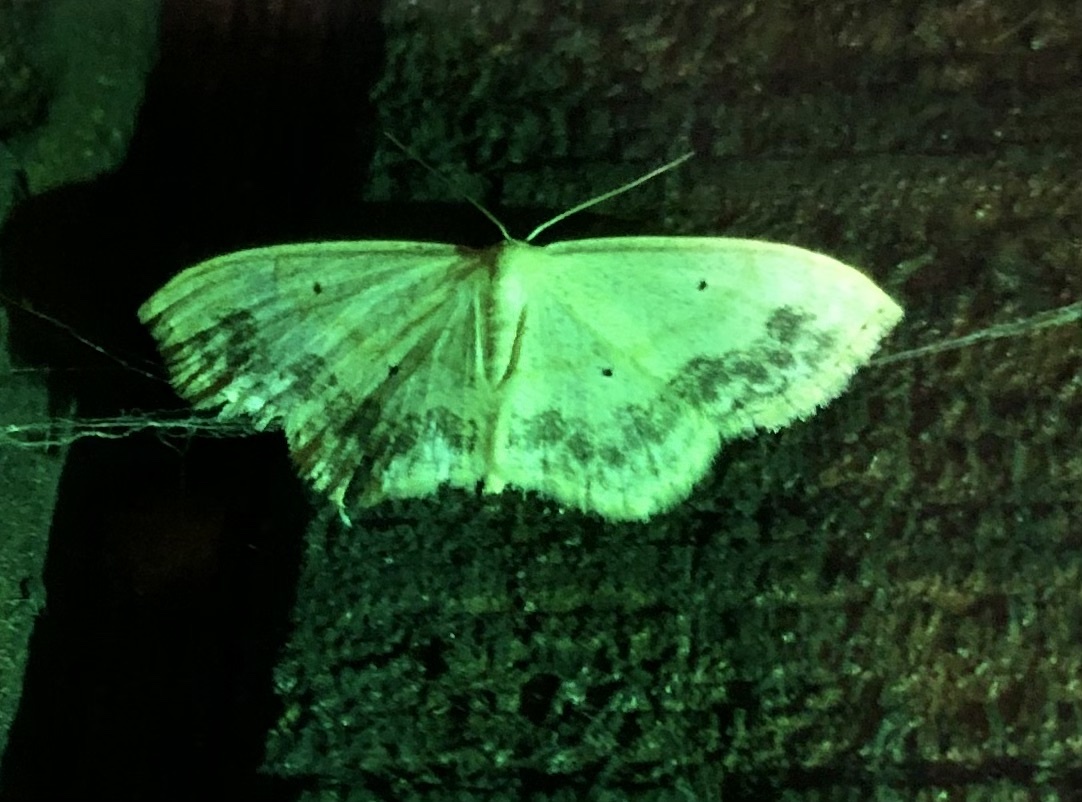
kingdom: Animalia
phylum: Arthropoda
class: Insecta
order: Lepidoptera
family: Geometridae
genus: Scopula
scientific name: Scopula limboundata
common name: Large lace border
